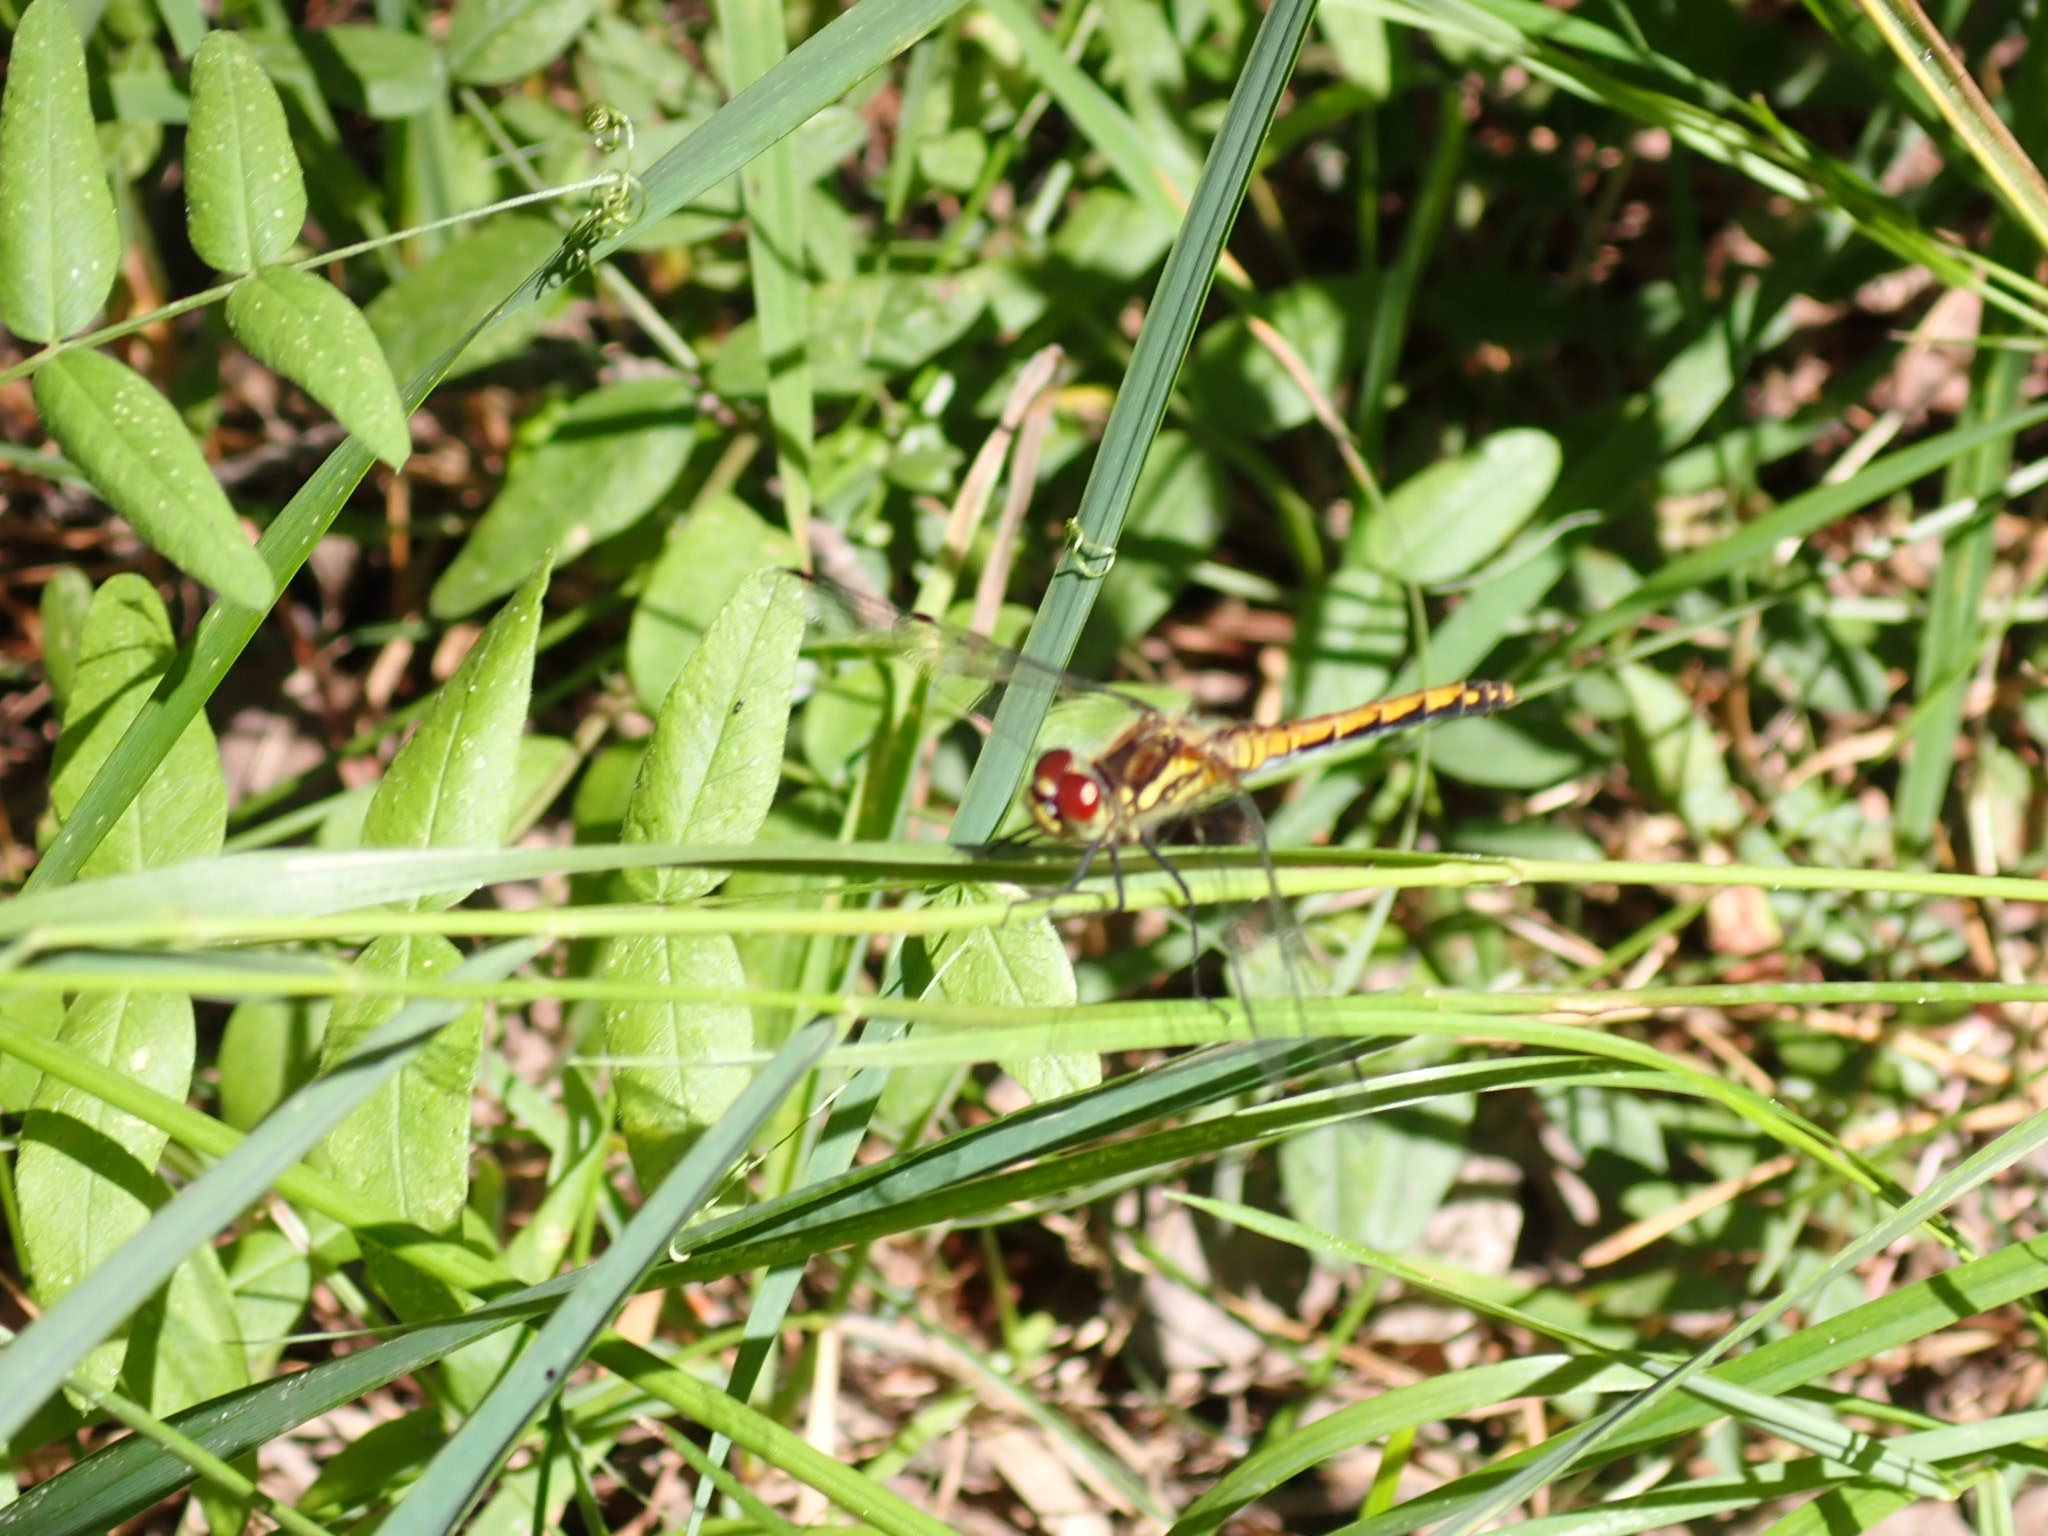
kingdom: Animalia
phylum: Arthropoda
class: Insecta
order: Odonata
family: Libellulidae
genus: Sympetrum
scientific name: Sympetrum danae
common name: Black darter
